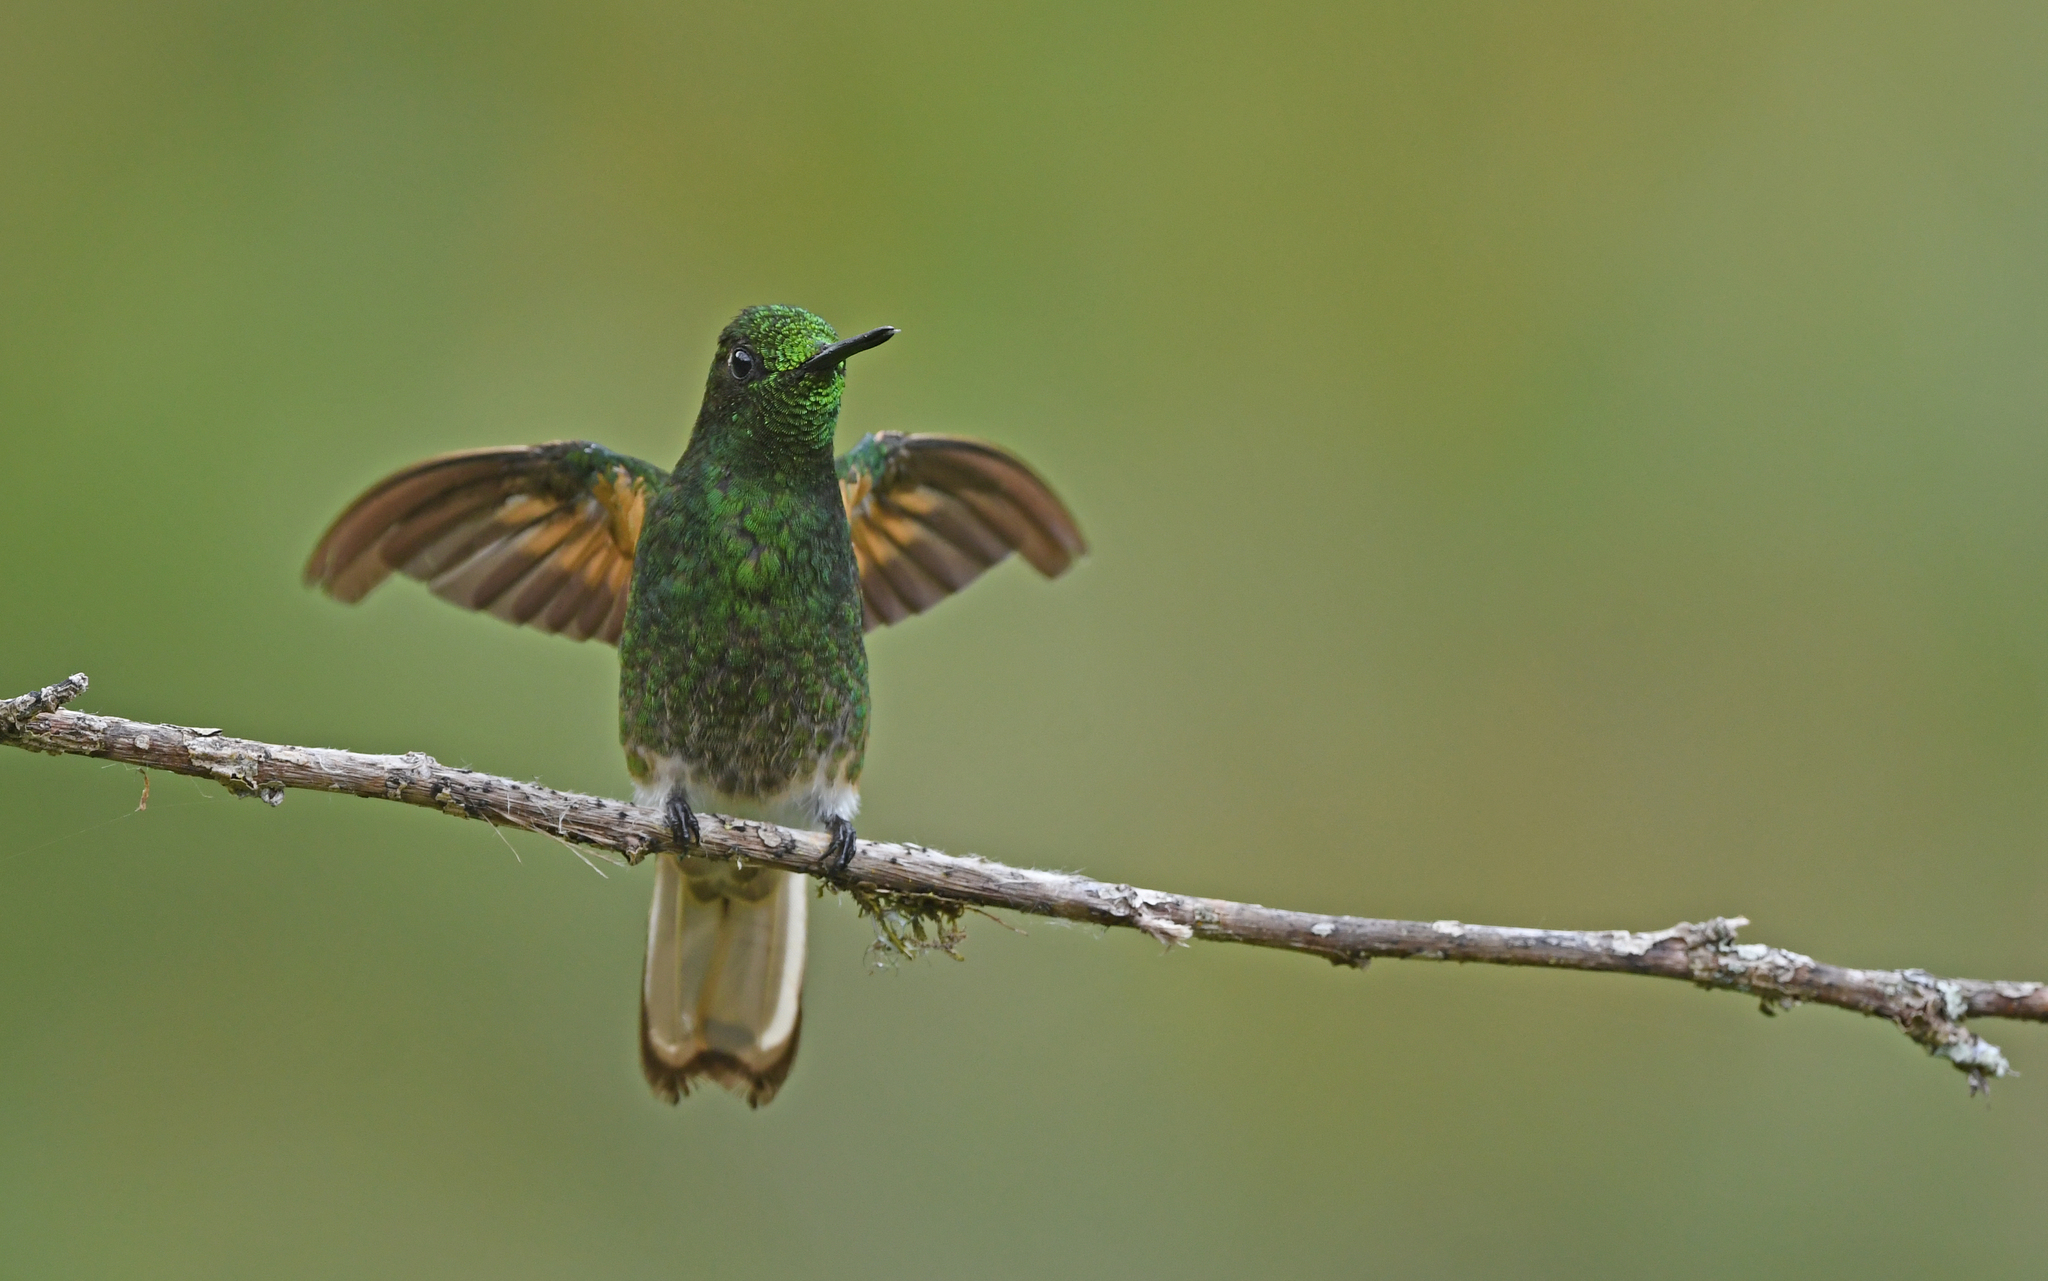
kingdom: Animalia
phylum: Chordata
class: Aves
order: Apodiformes
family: Trochilidae
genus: Boissonneaua
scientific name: Boissonneaua flavescens
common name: Buff-tailed coronet
